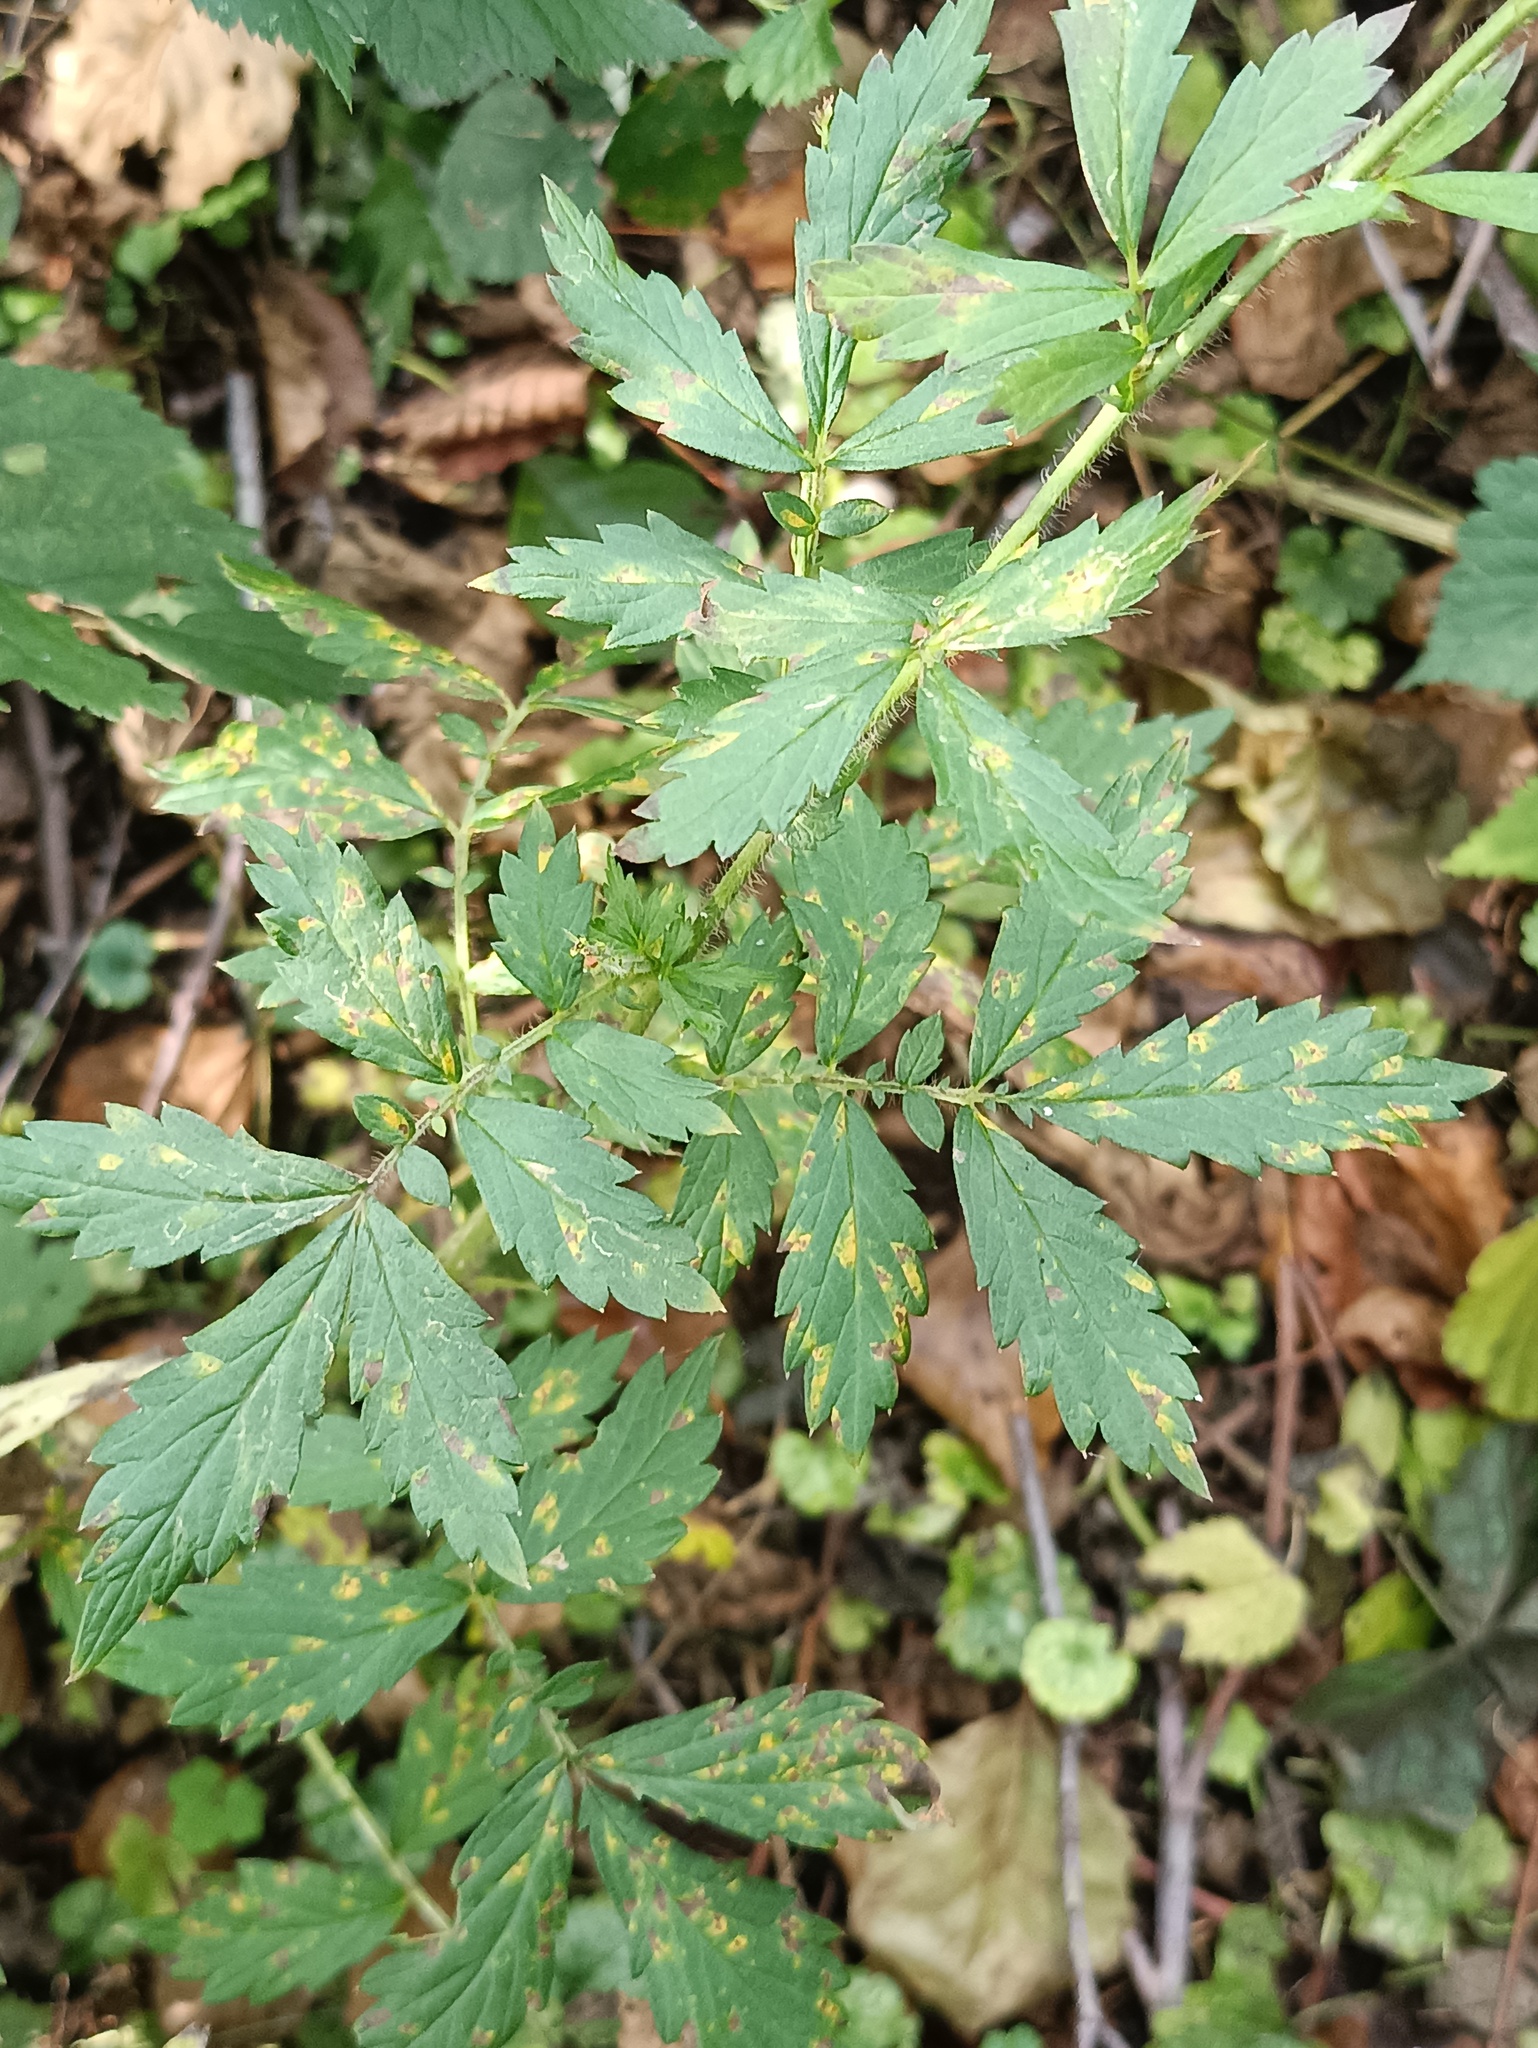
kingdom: Plantae
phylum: Tracheophyta
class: Magnoliopsida
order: Rosales
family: Rosaceae
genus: Agrimonia
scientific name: Agrimonia pilosa
